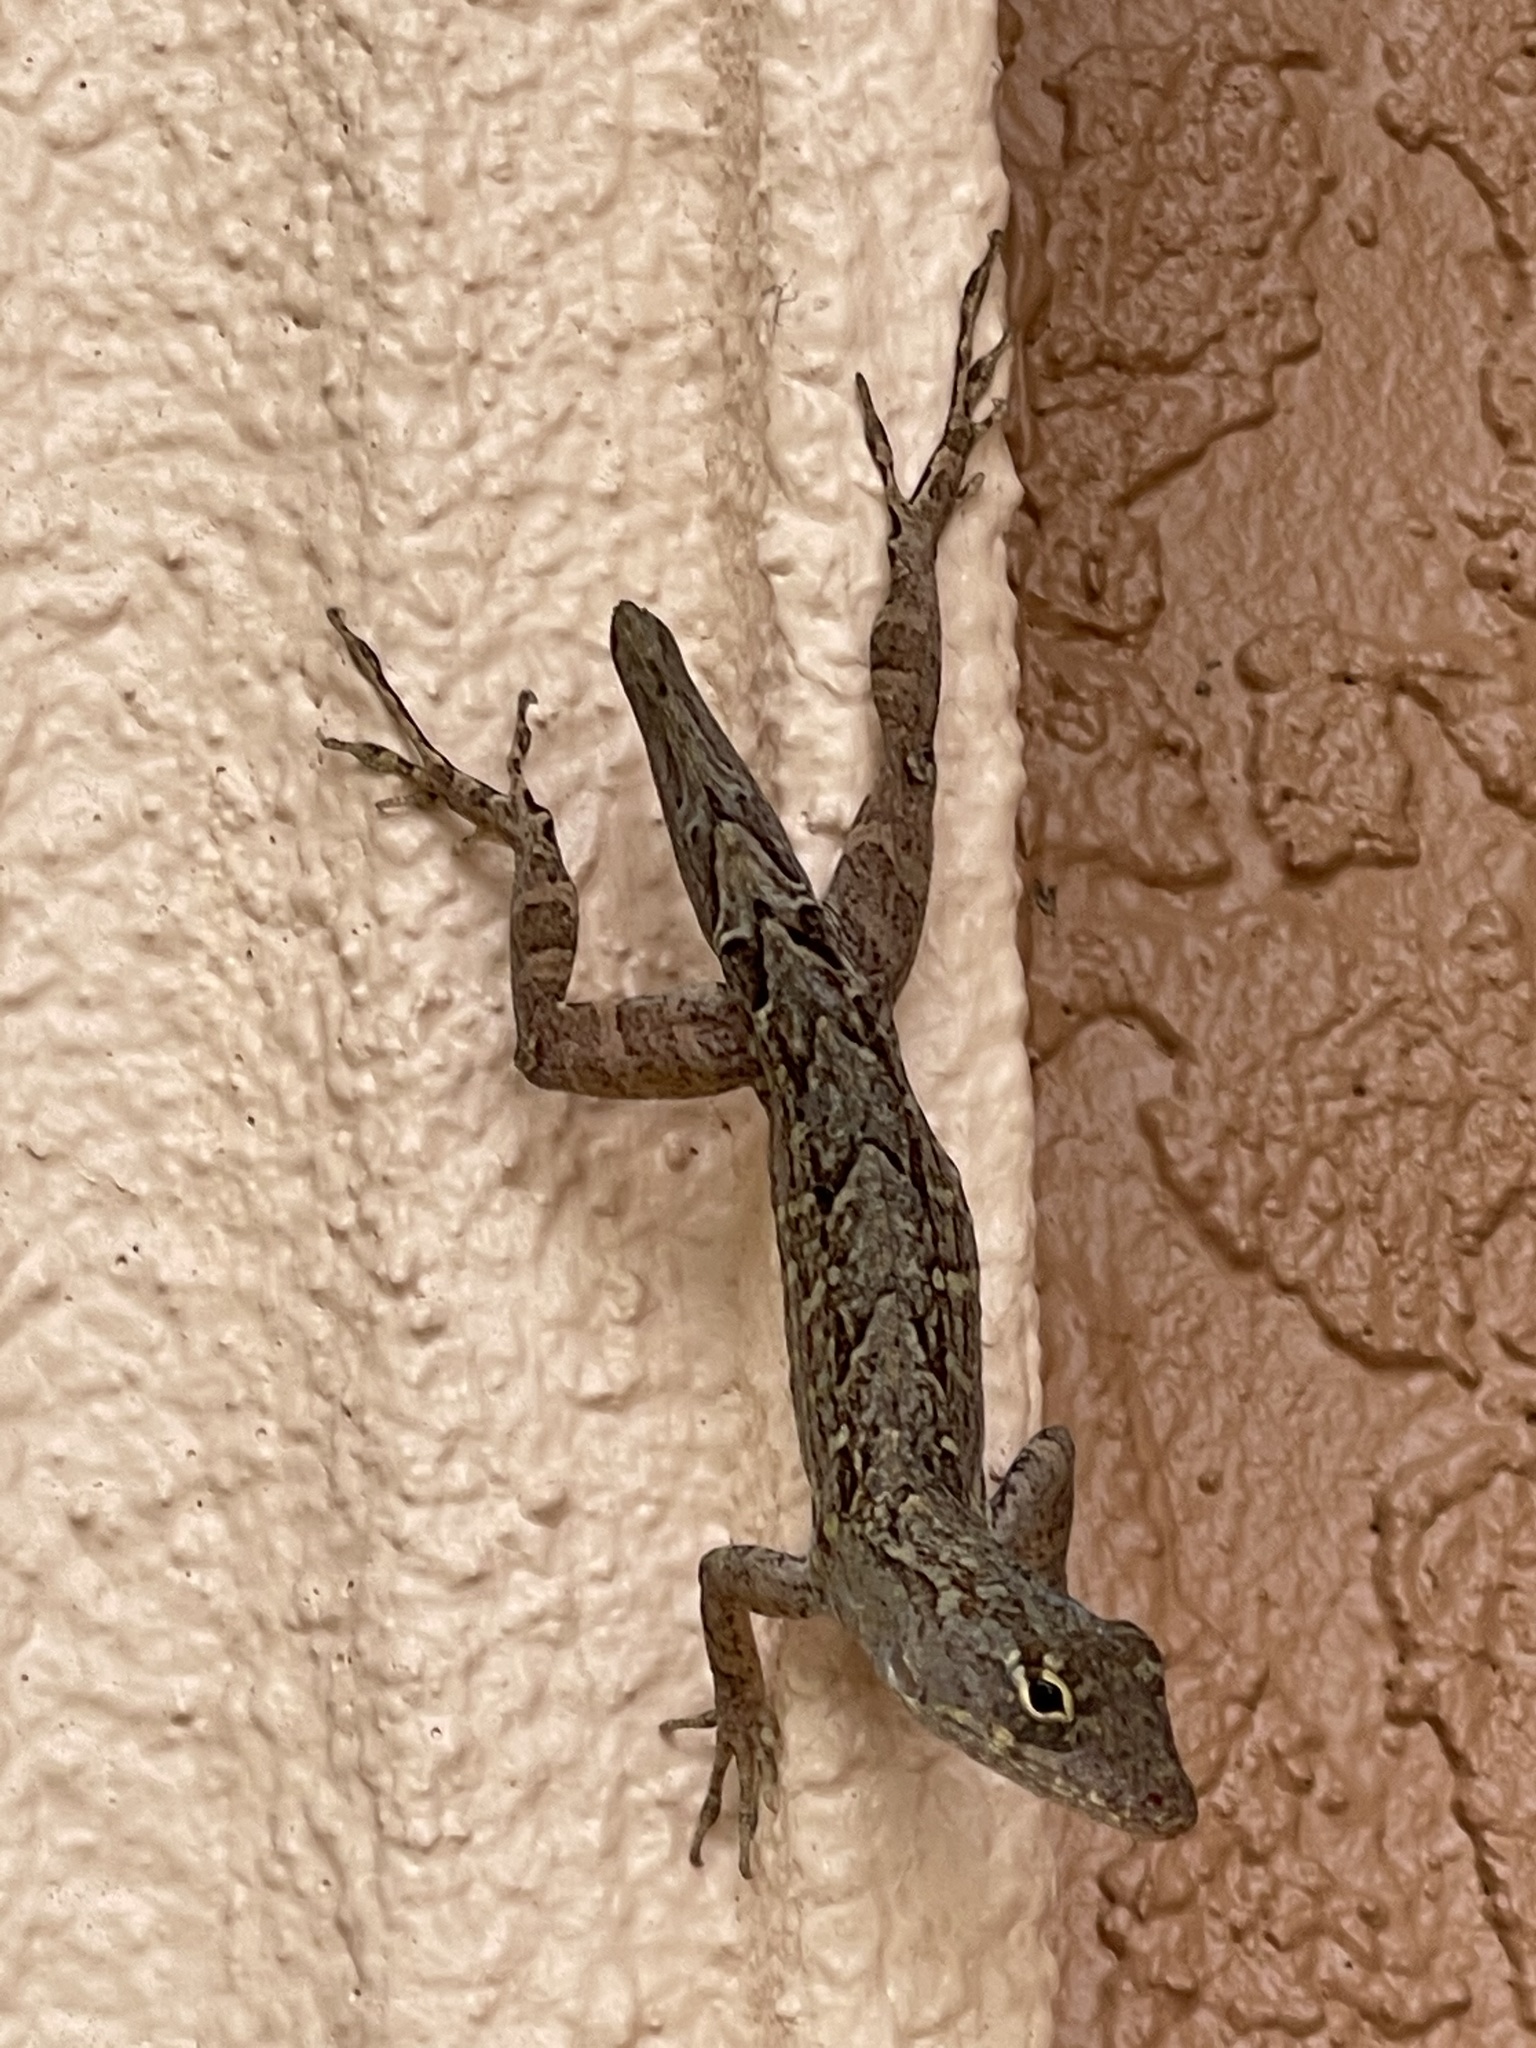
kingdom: Animalia
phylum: Chordata
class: Squamata
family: Dactyloidae
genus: Anolis
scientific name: Anolis sagrei
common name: Brown anole
